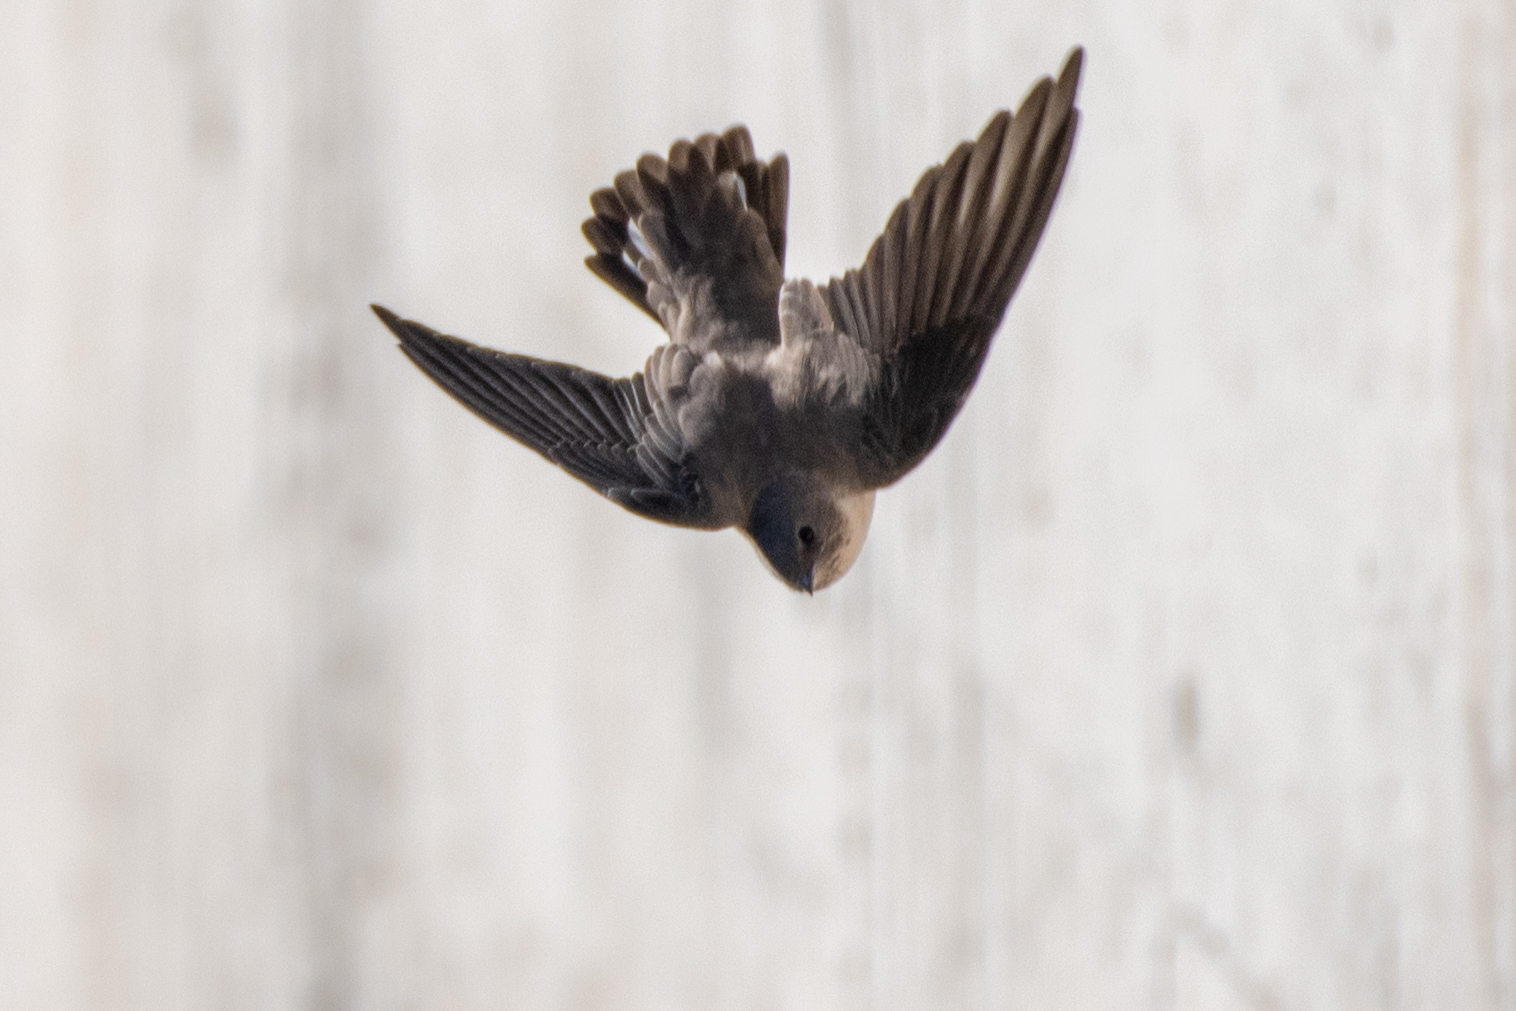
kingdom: Animalia
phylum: Chordata
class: Aves
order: Passeriformes
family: Hirundinidae
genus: Ptyonoprogne
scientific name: Ptyonoprogne rupestris
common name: Eurasian crag martin
